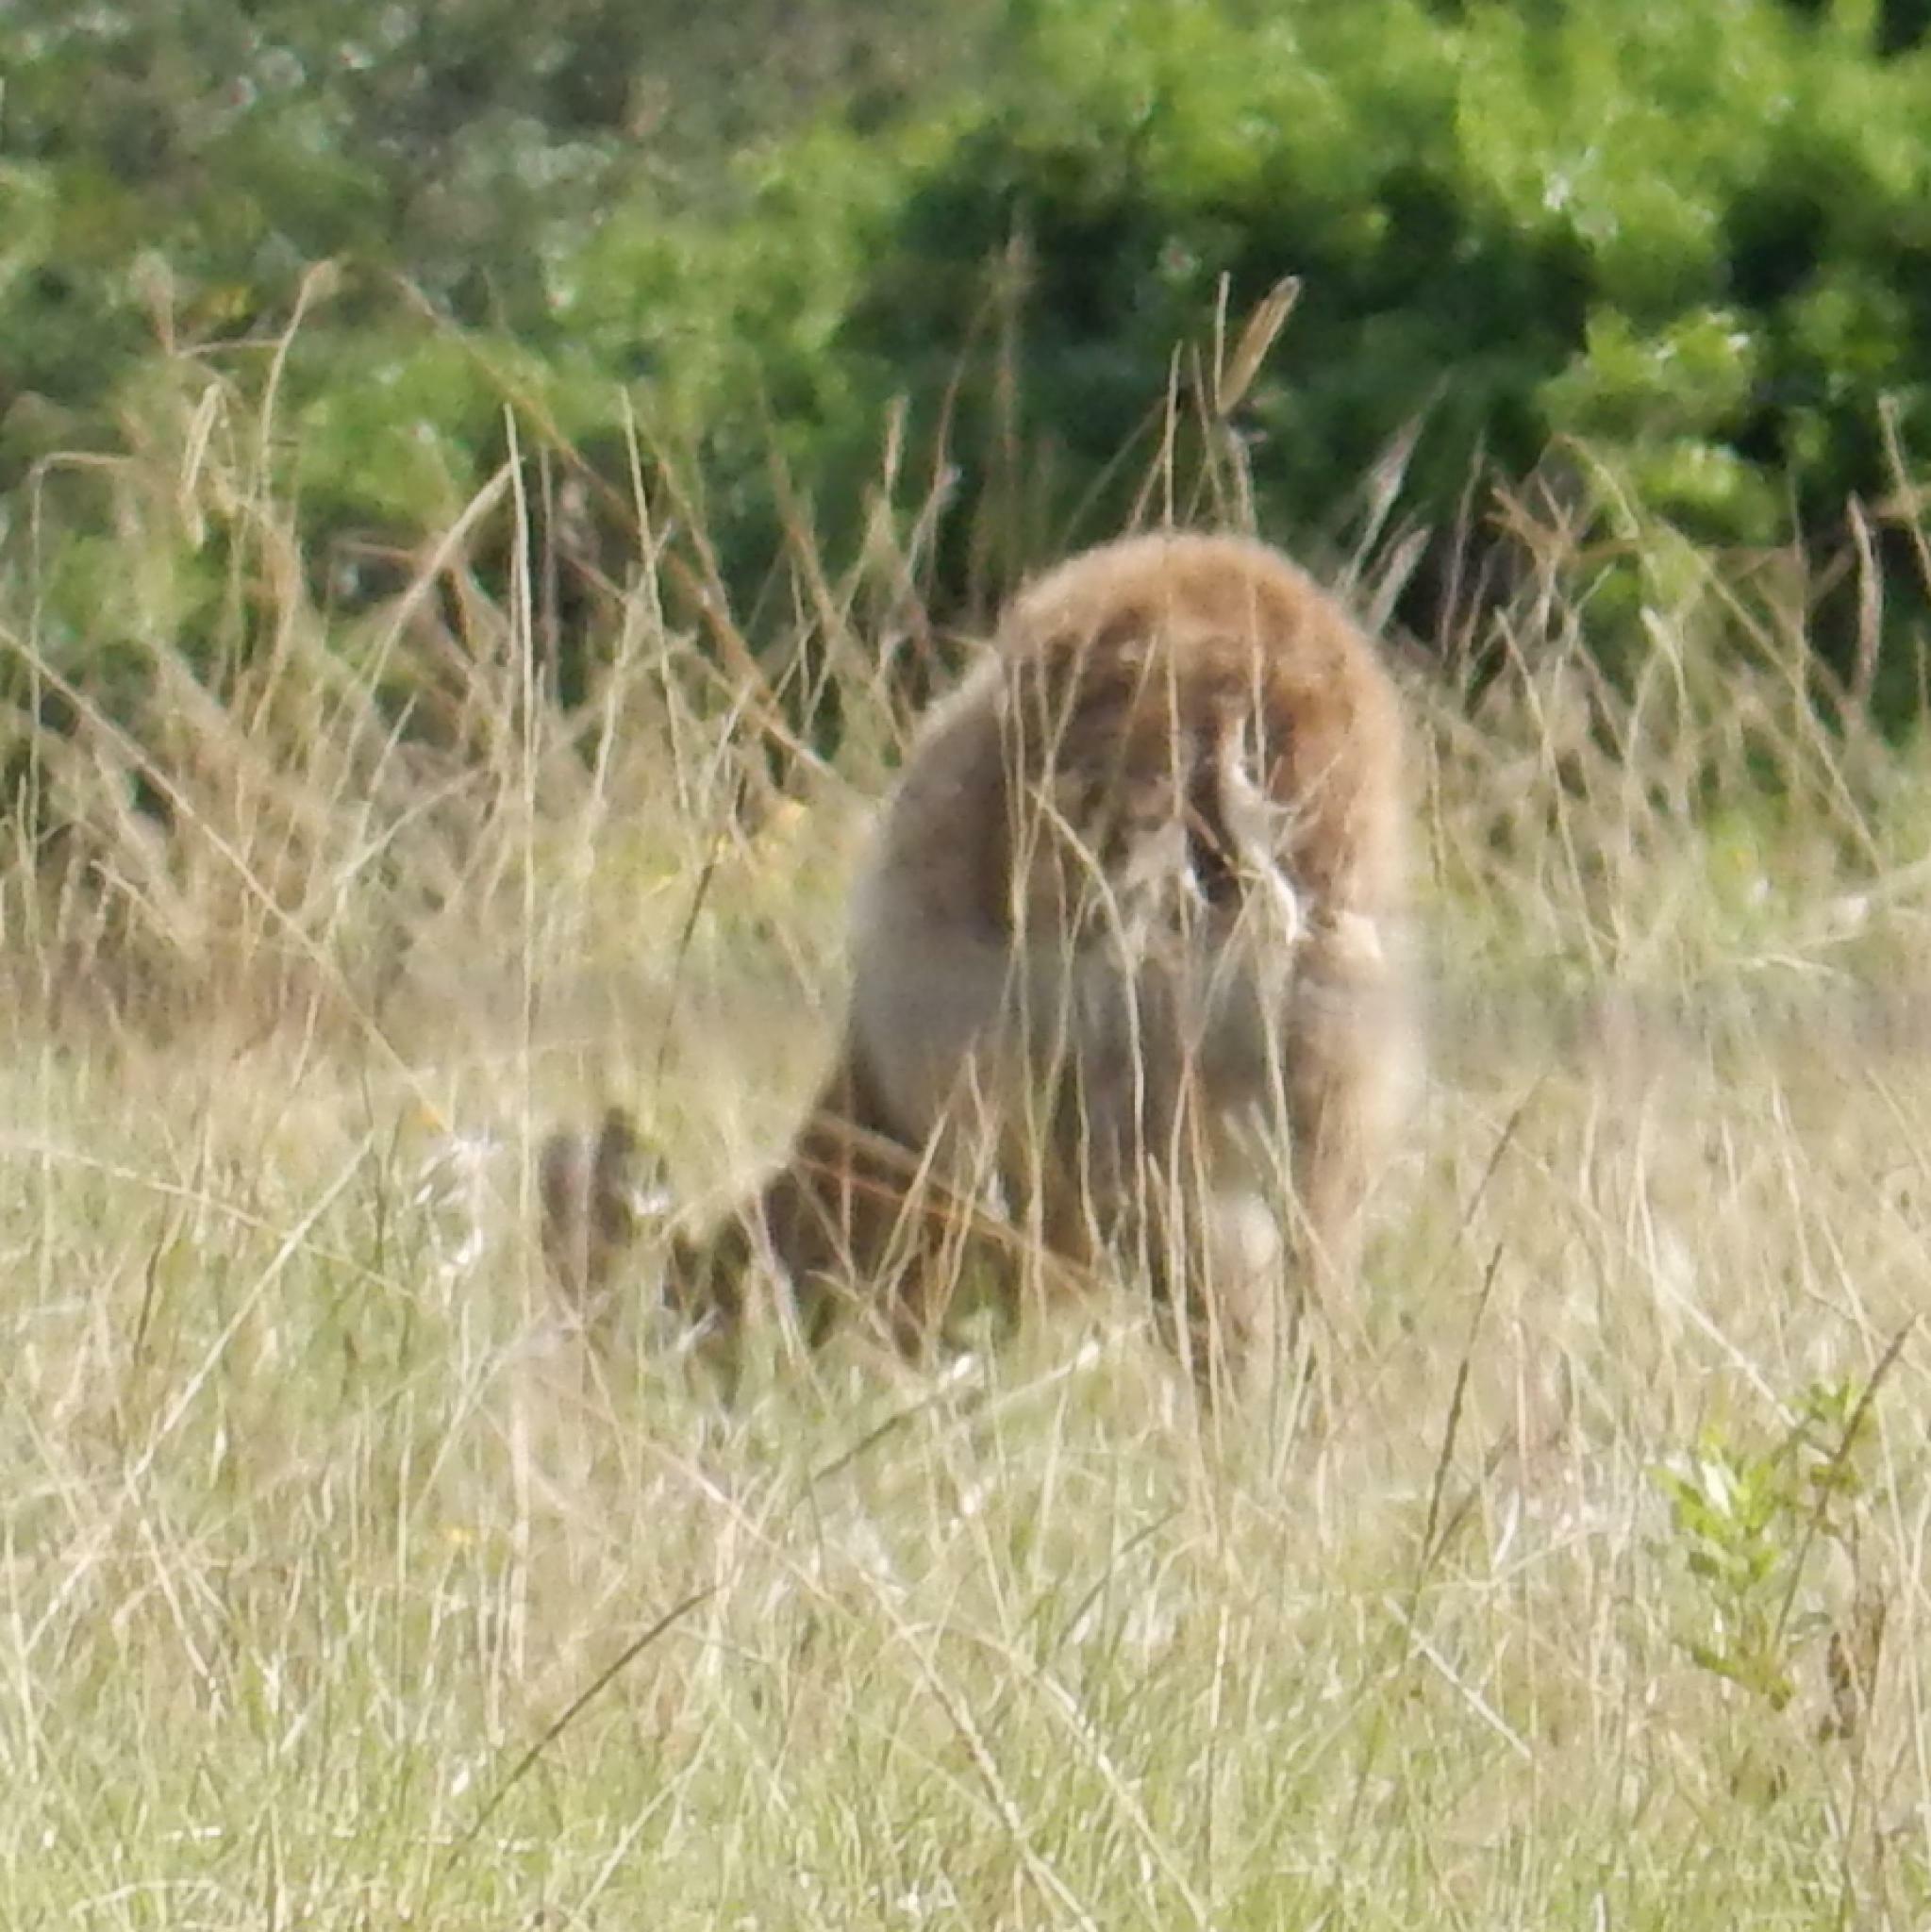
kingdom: Animalia
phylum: Chordata
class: Mammalia
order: Artiodactyla
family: Bovidae
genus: Sylvicapra
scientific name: Sylvicapra grimmia
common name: Bush duiker
